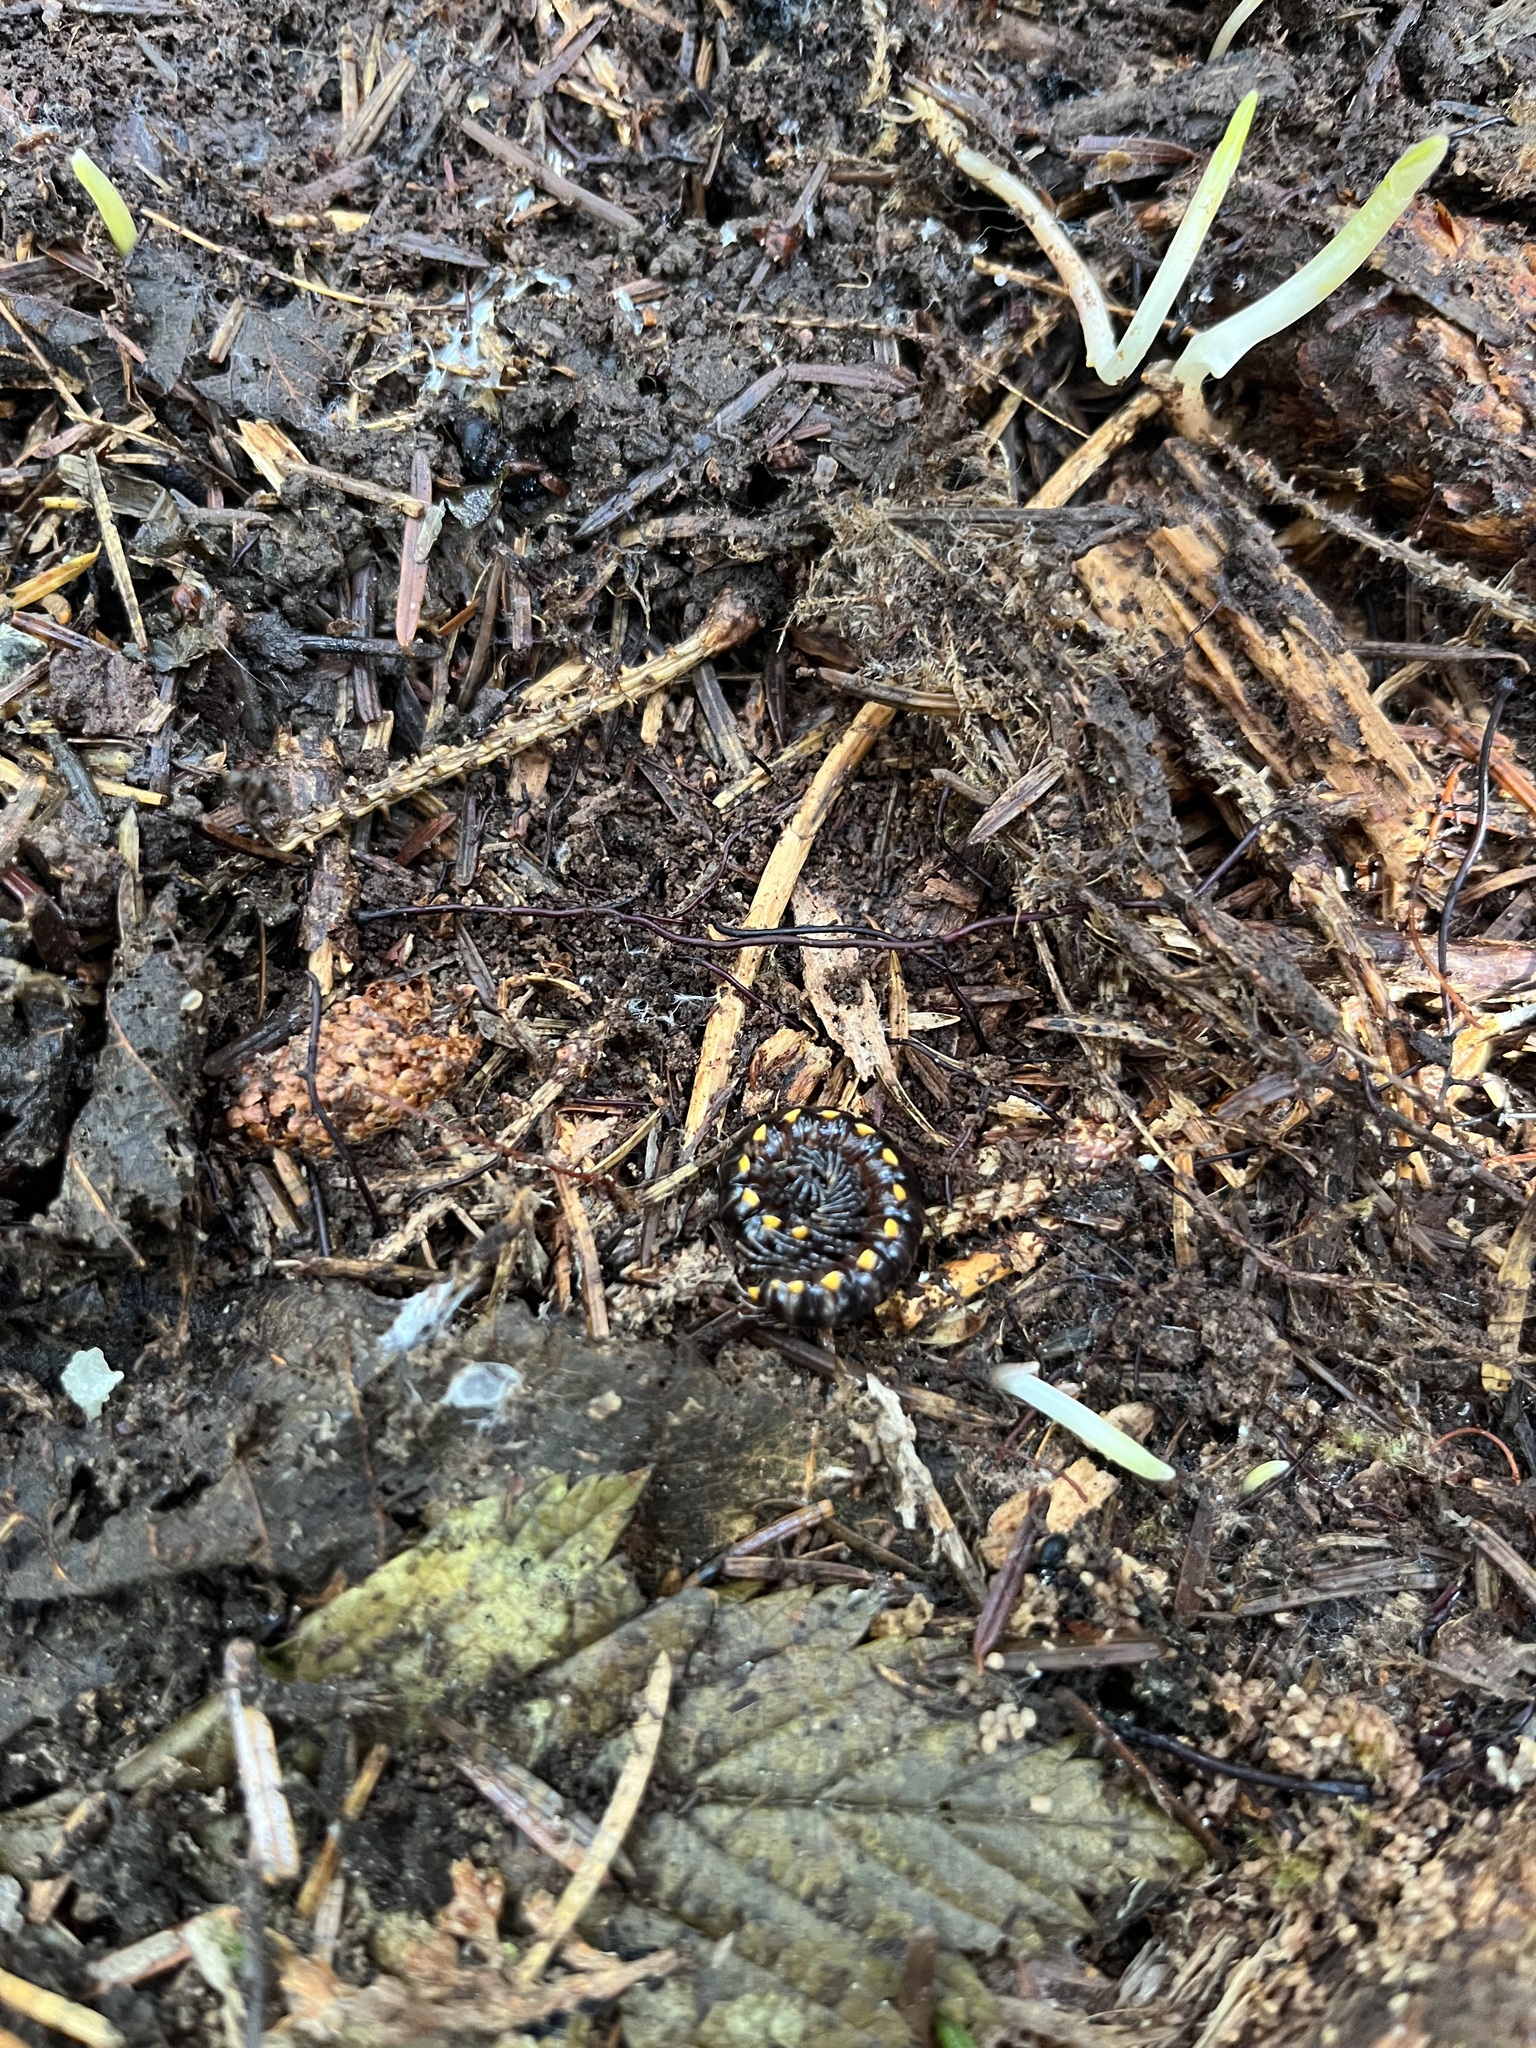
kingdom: Animalia
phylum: Arthropoda
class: Diplopoda
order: Polydesmida
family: Xystodesmidae
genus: Harpaphe
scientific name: Harpaphe haydeniana
